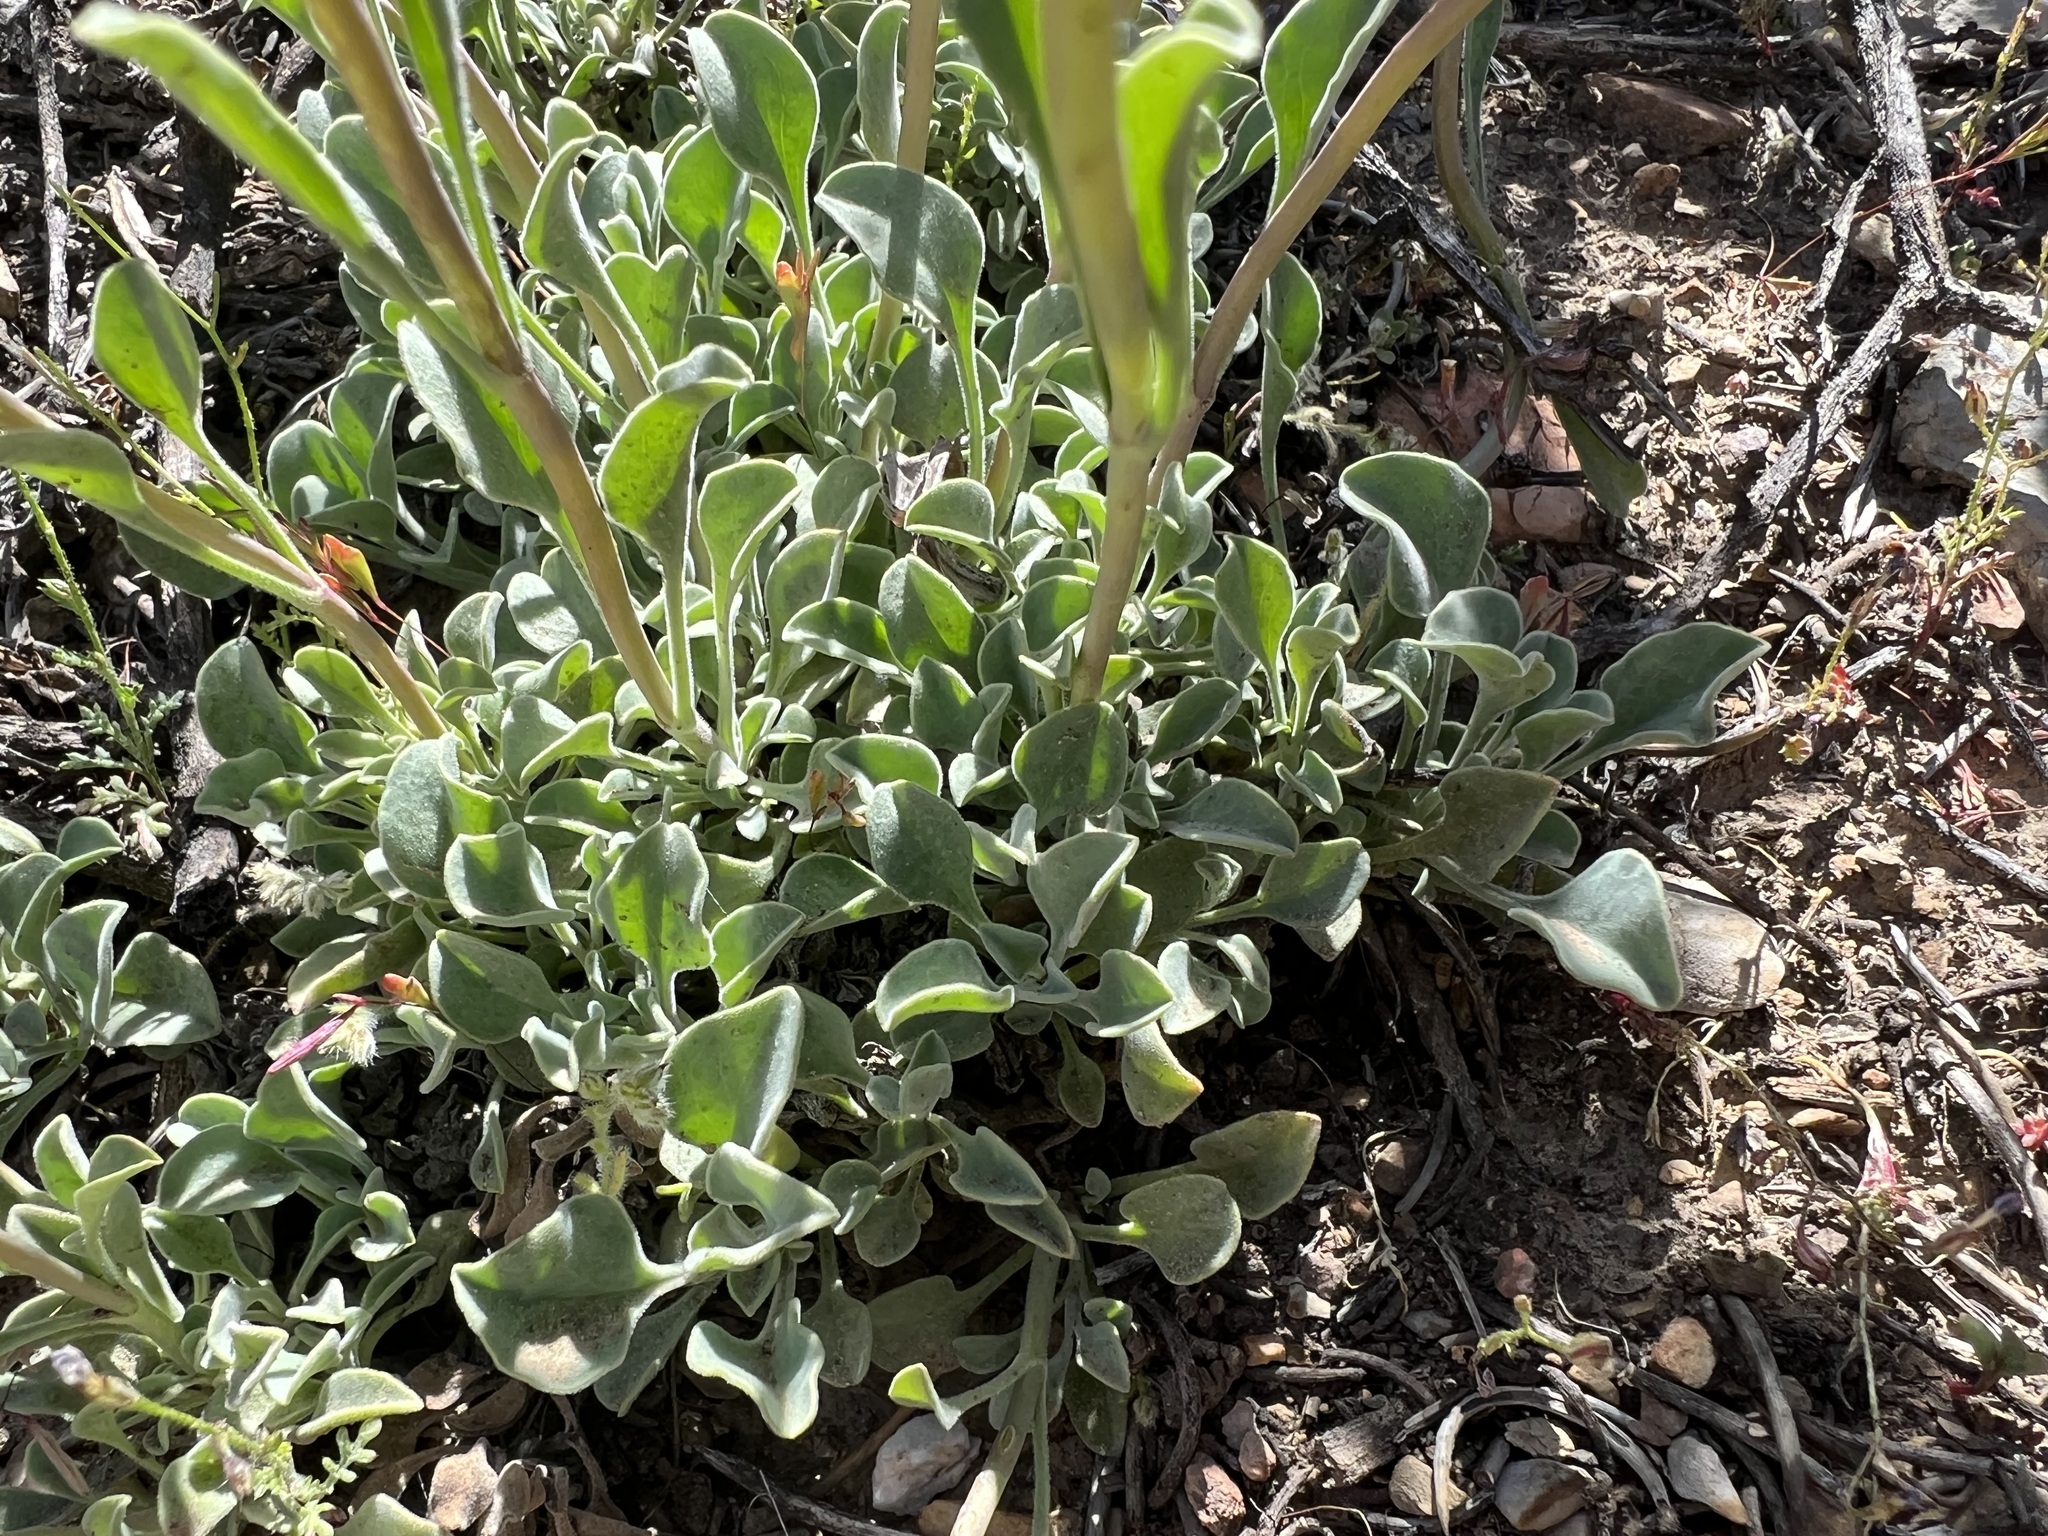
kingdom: Plantae
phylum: Tracheophyta
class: Magnoliopsida
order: Lamiales
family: Plantaginaceae
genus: Penstemon
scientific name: Penstemon scapoides
